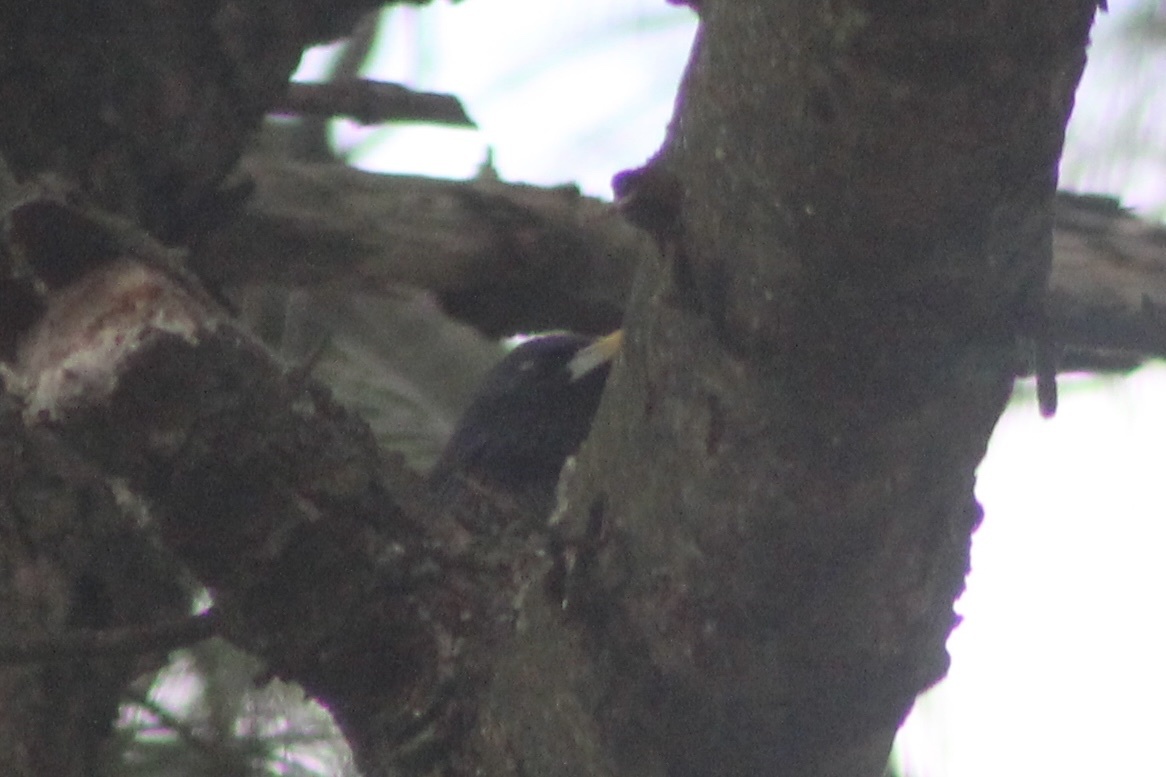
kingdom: Animalia
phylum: Chordata
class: Aves
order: Passeriformes
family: Sturnidae
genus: Sturnus
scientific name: Sturnus vulgaris
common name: Common starling
